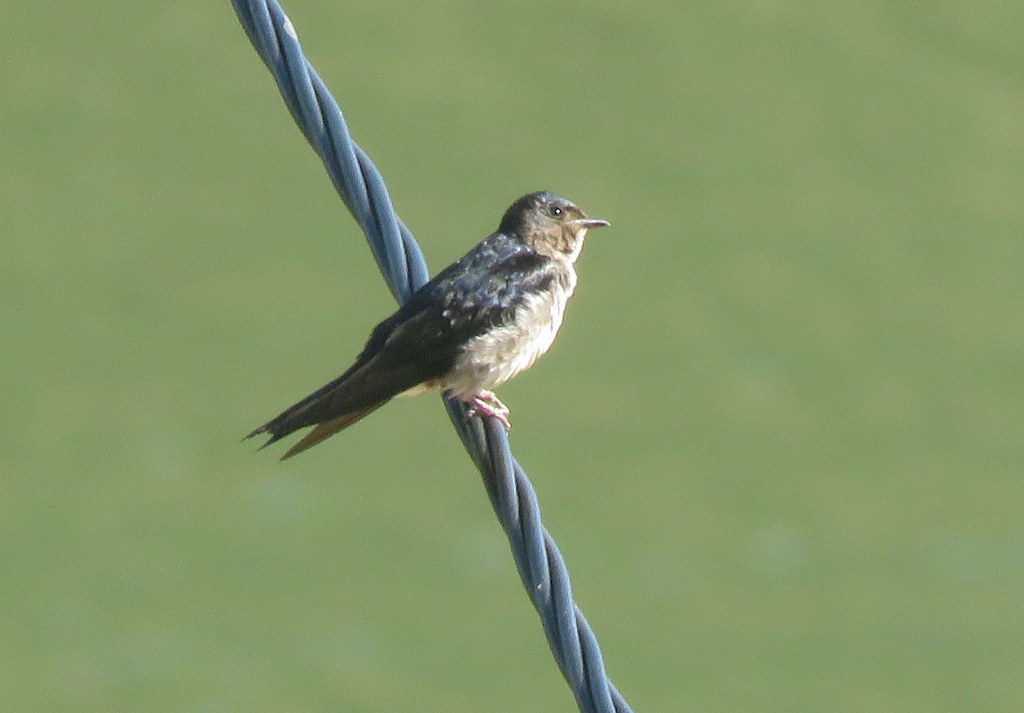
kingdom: Animalia
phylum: Chordata
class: Aves
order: Passeriformes
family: Hirundinidae
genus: Progne
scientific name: Progne chalybea
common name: Grey-breasted martin
